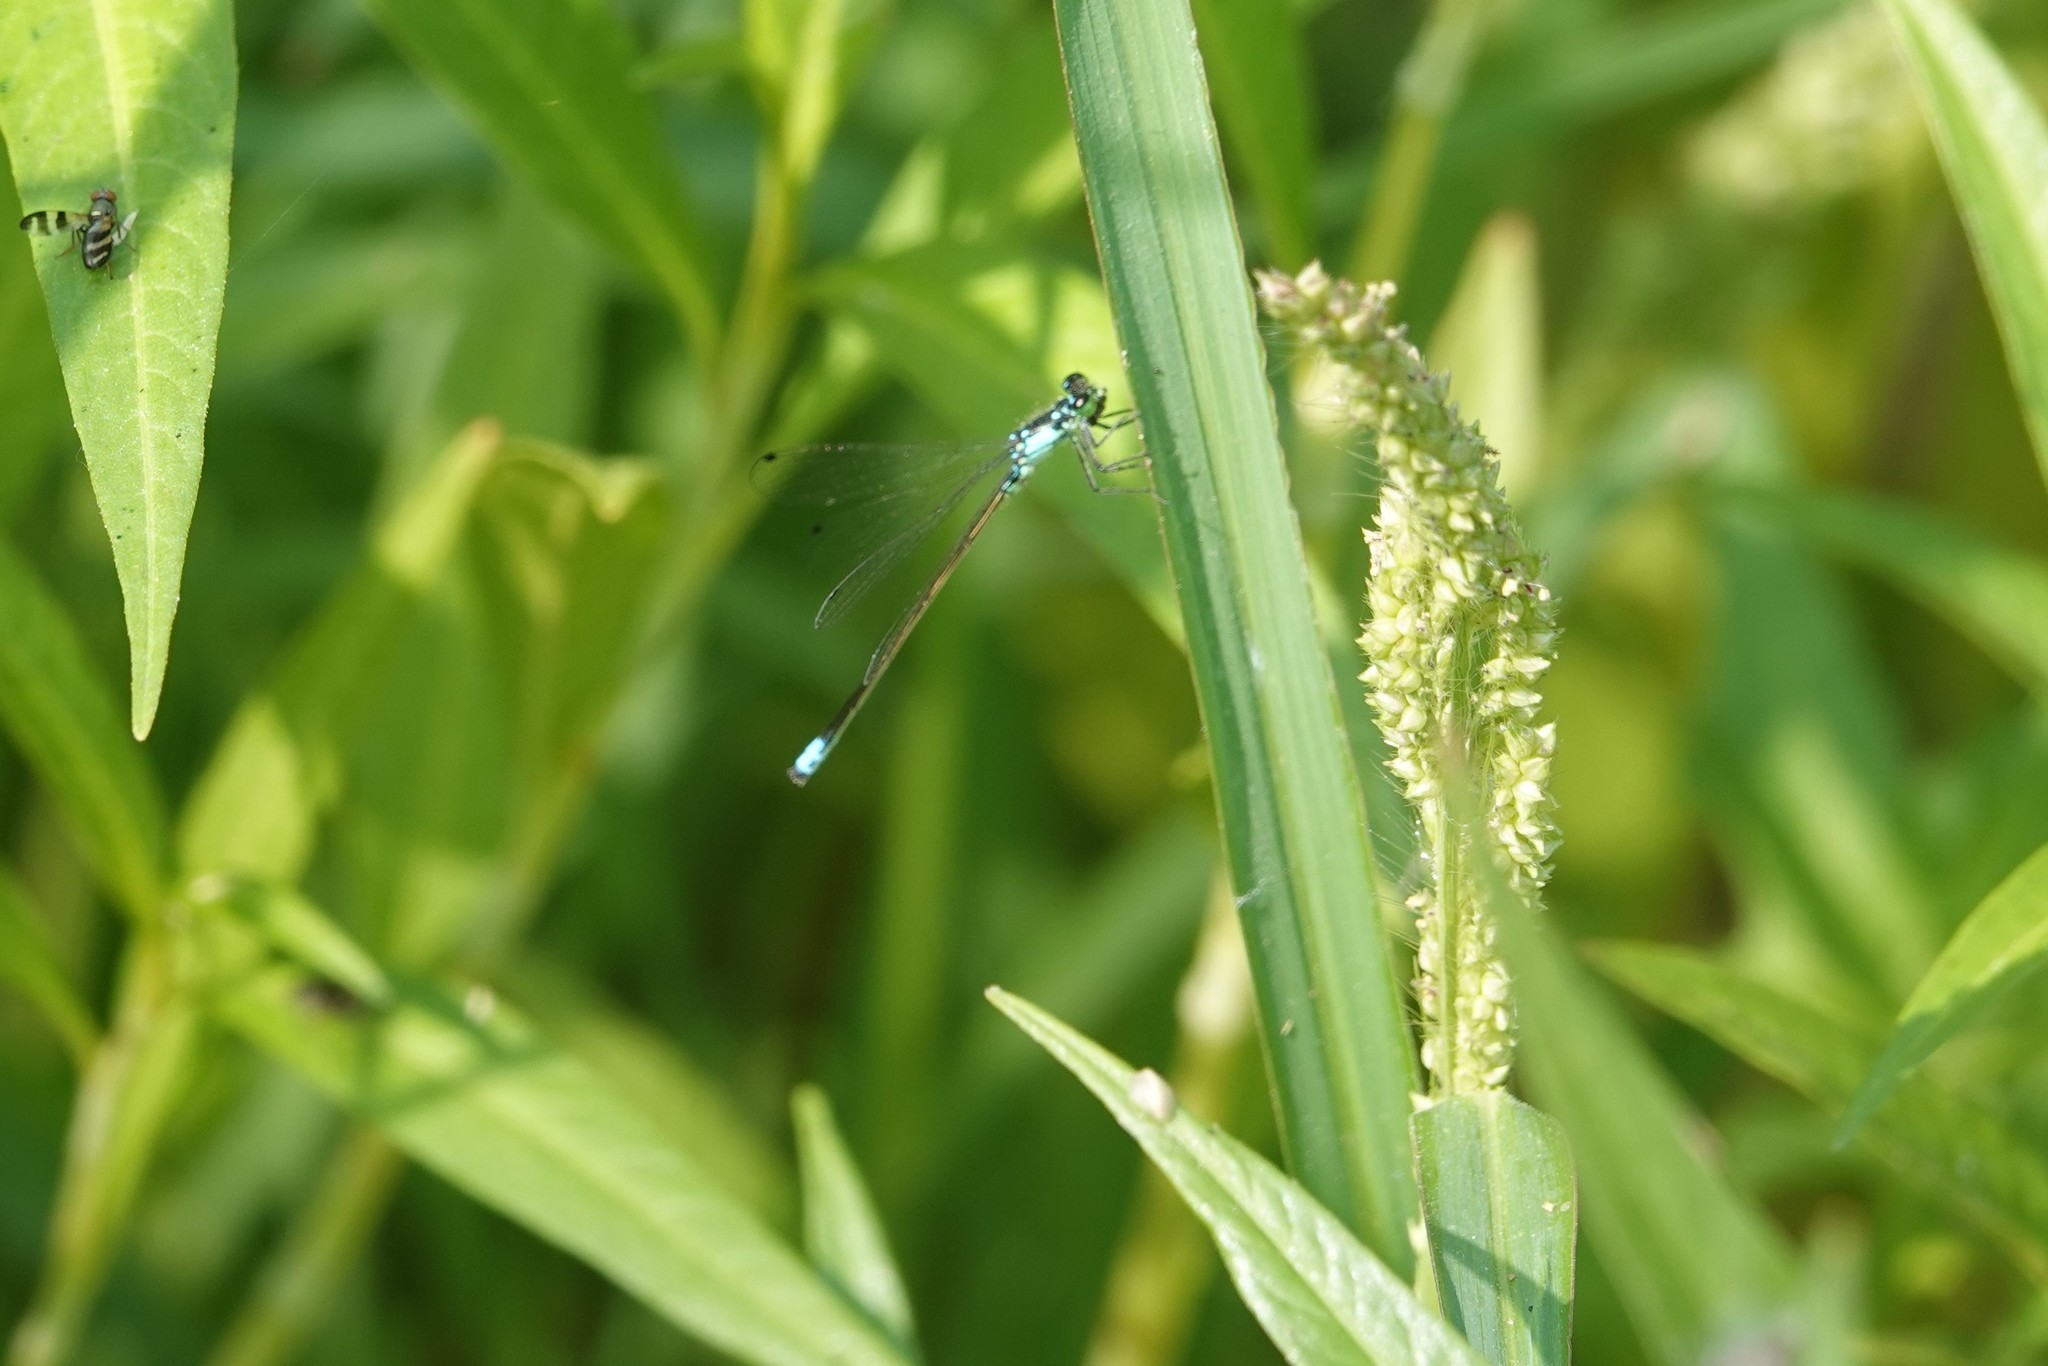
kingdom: Animalia
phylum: Arthropoda
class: Insecta
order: Odonata
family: Coenagrionidae
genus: Ischnura
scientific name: Ischnura cervula
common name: Pacific forktail
